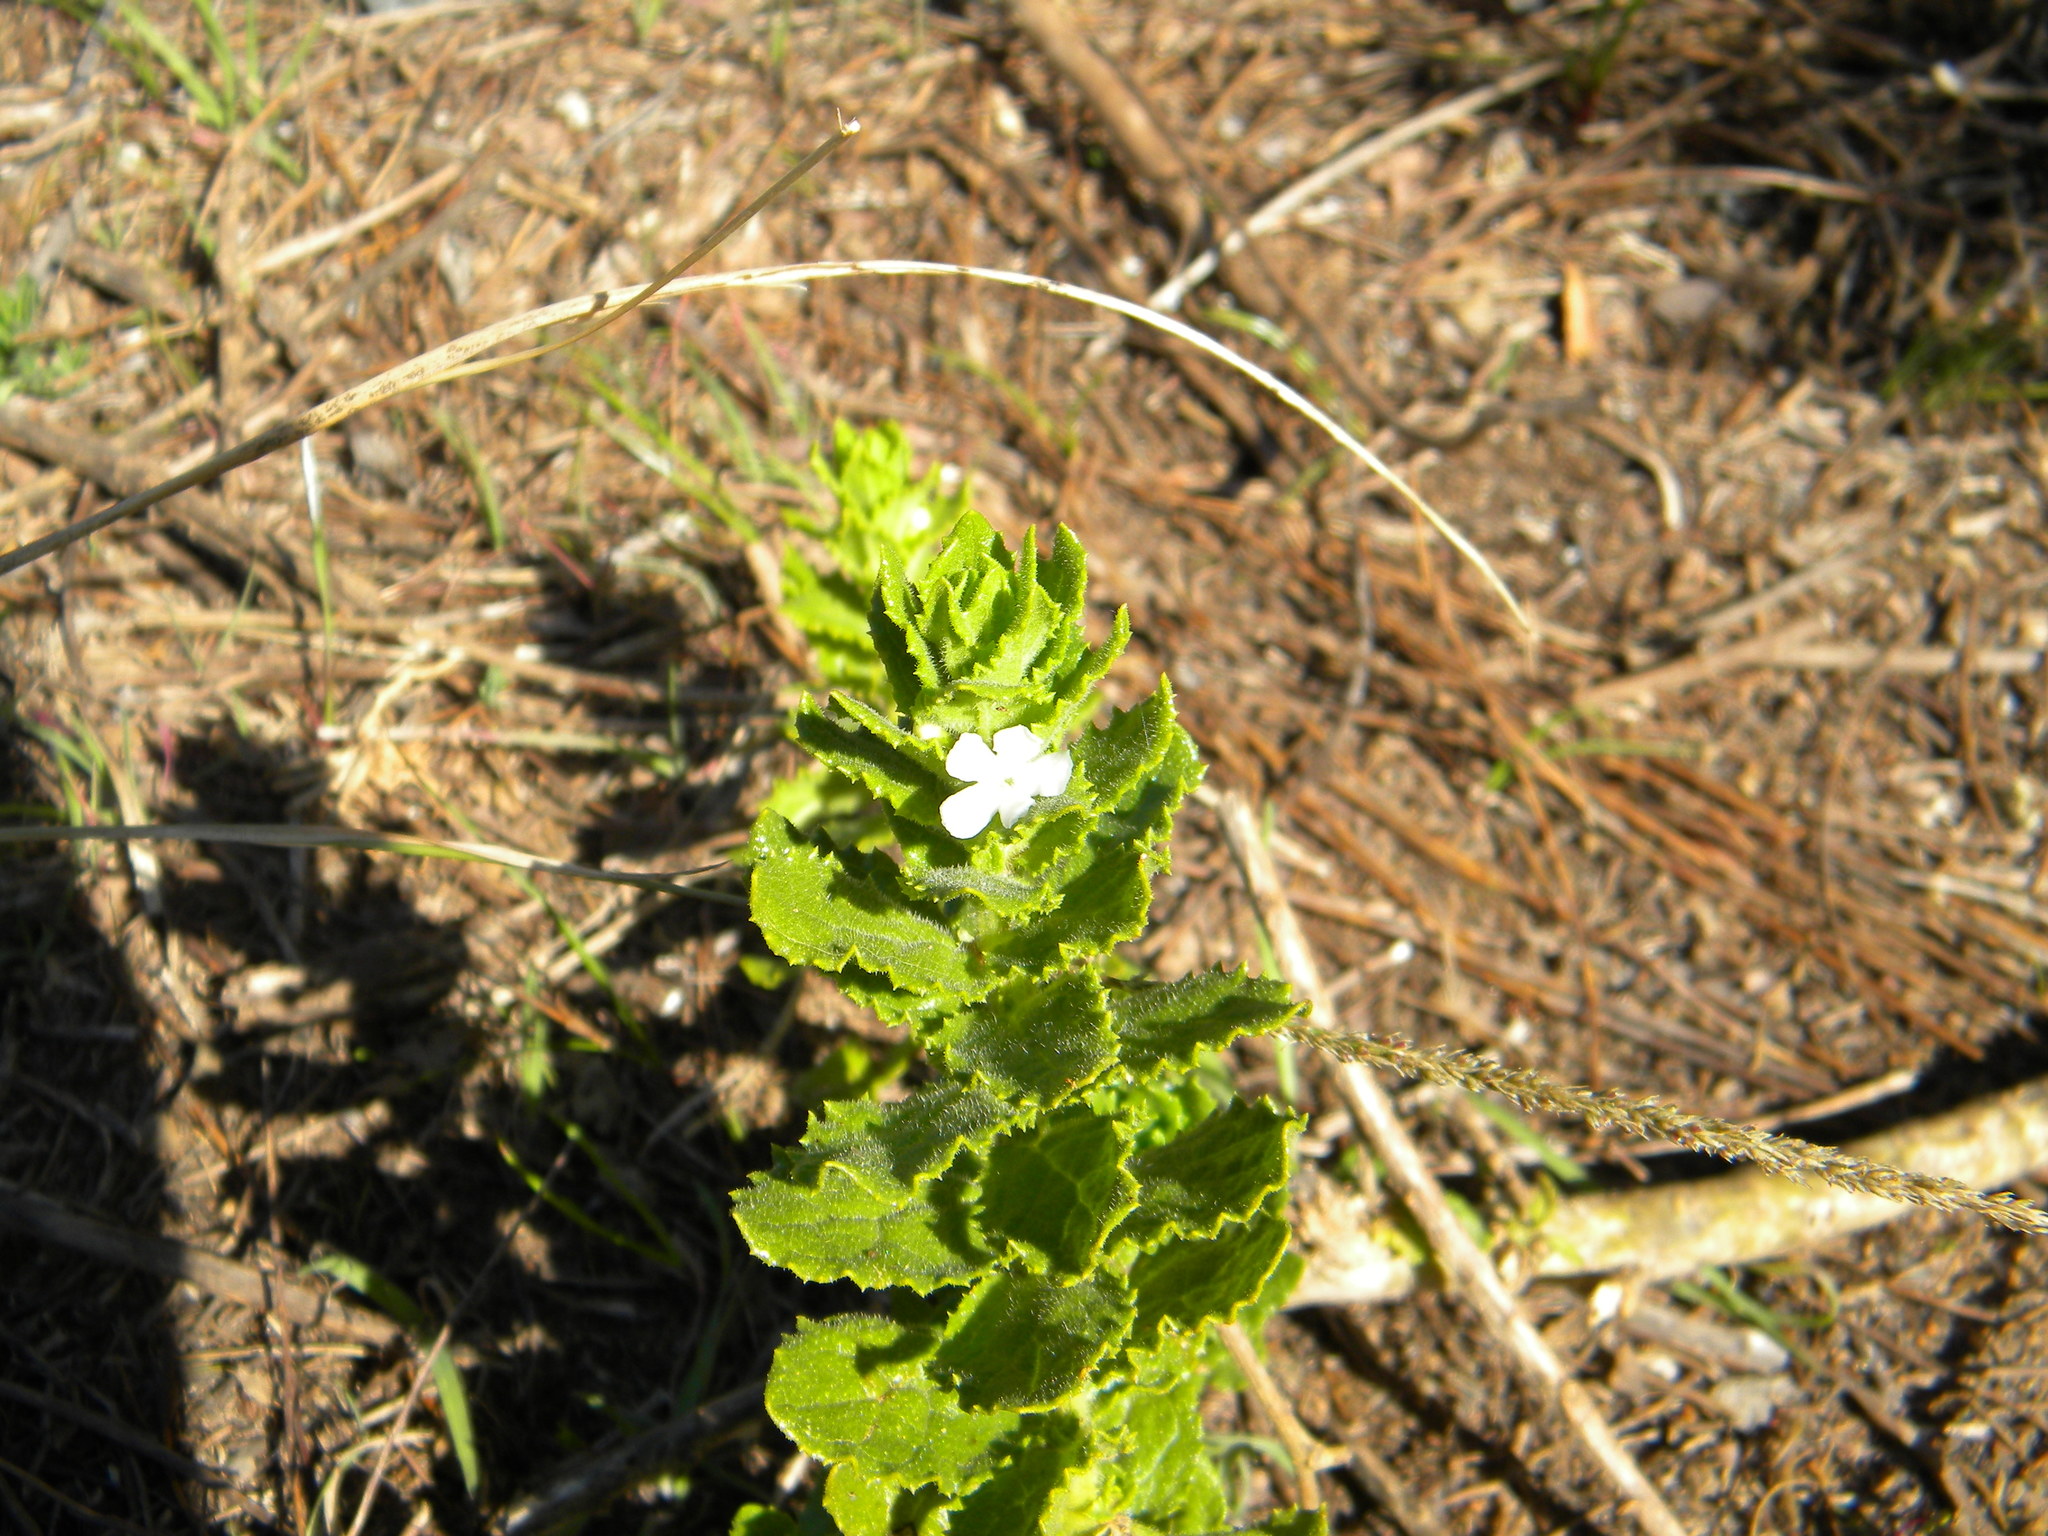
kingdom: Plantae
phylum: Tracheophyta
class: Magnoliopsida
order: Lamiales
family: Scrophulariaceae
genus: Oftia
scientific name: Oftia africana
